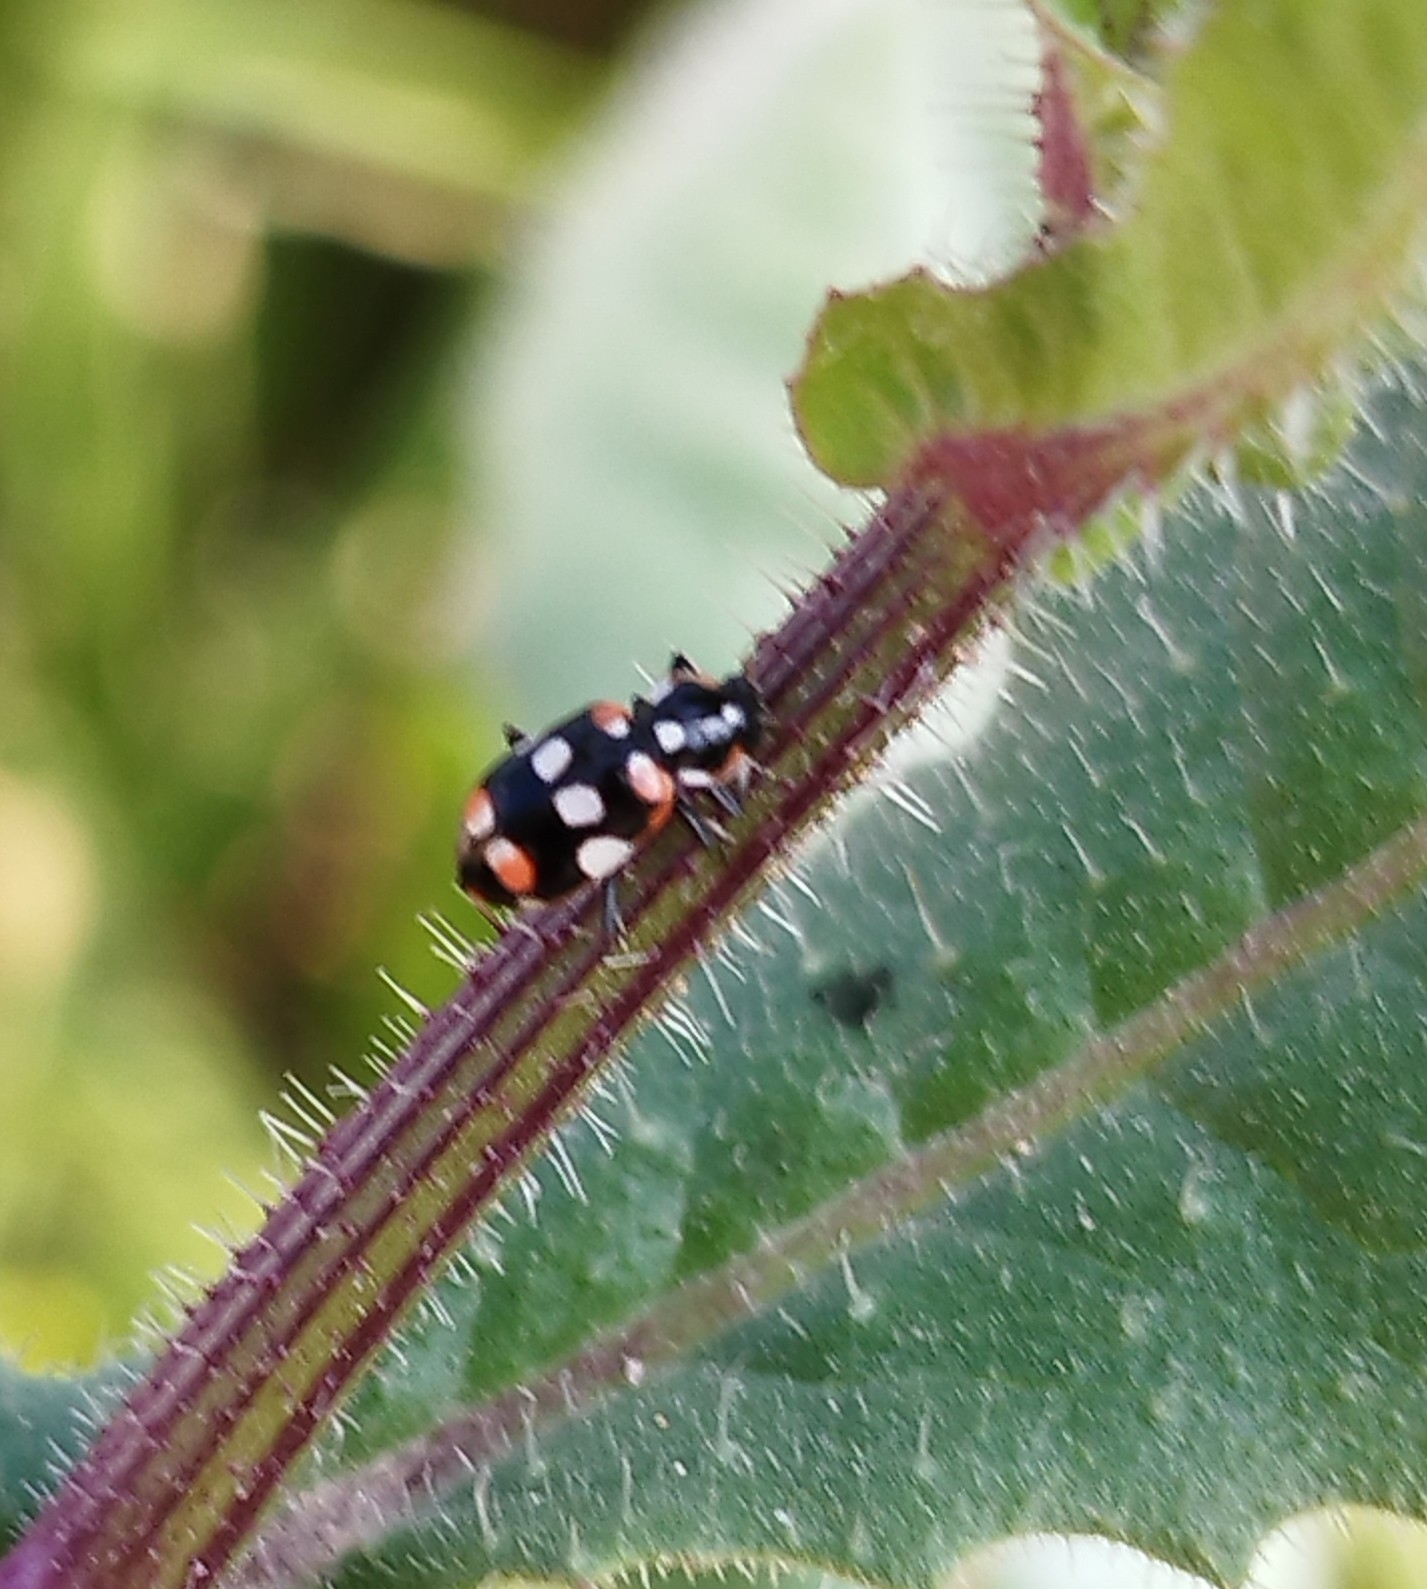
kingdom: Animalia
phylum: Arthropoda
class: Insecta
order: Coleoptera
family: Coccinellidae
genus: Eriopis
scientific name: Eriopis connexa
